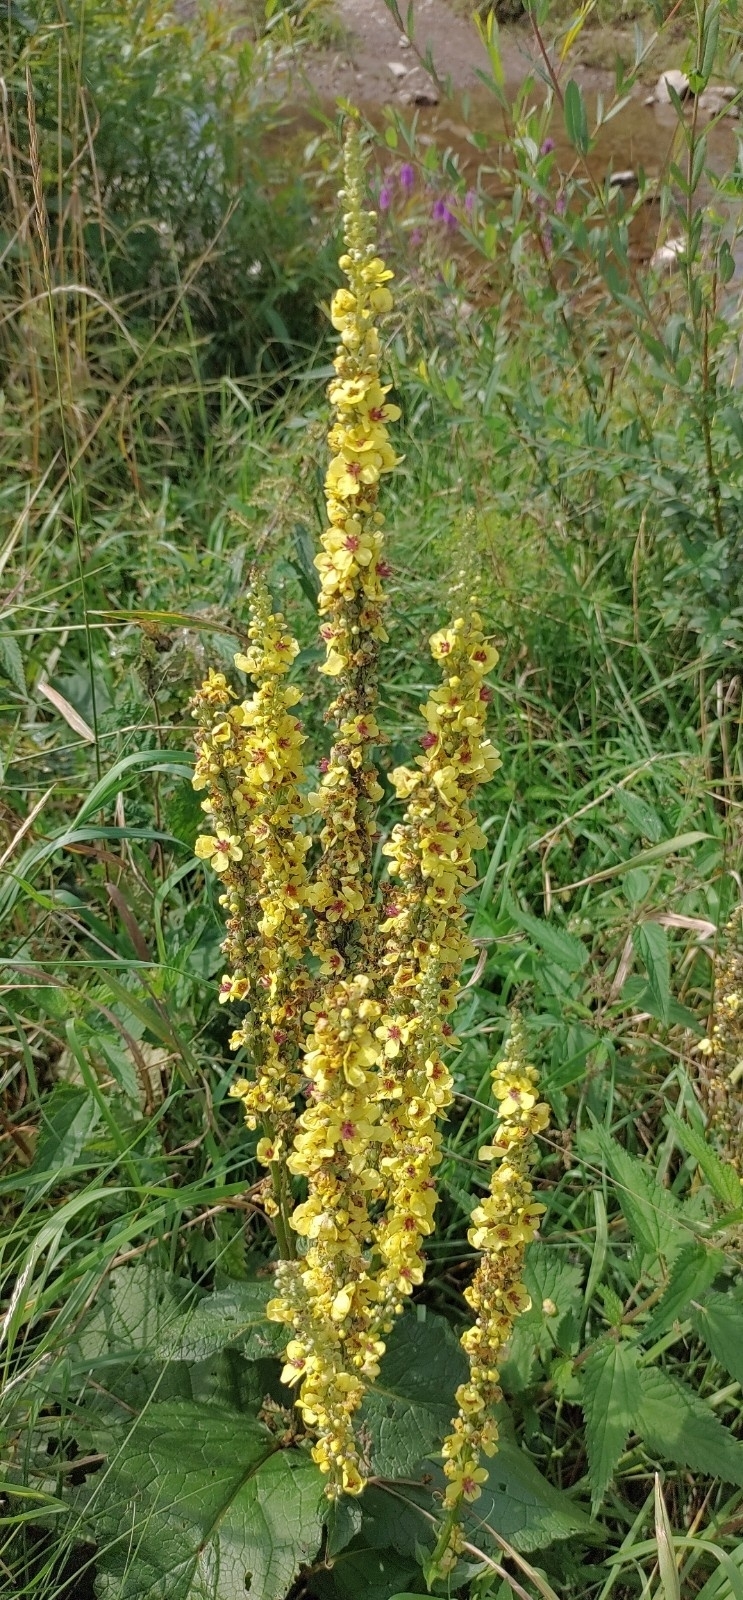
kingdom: Plantae
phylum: Tracheophyta
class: Magnoliopsida
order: Lamiales
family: Scrophulariaceae
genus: Verbascum
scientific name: Verbascum nigrum
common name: Dark mullein
